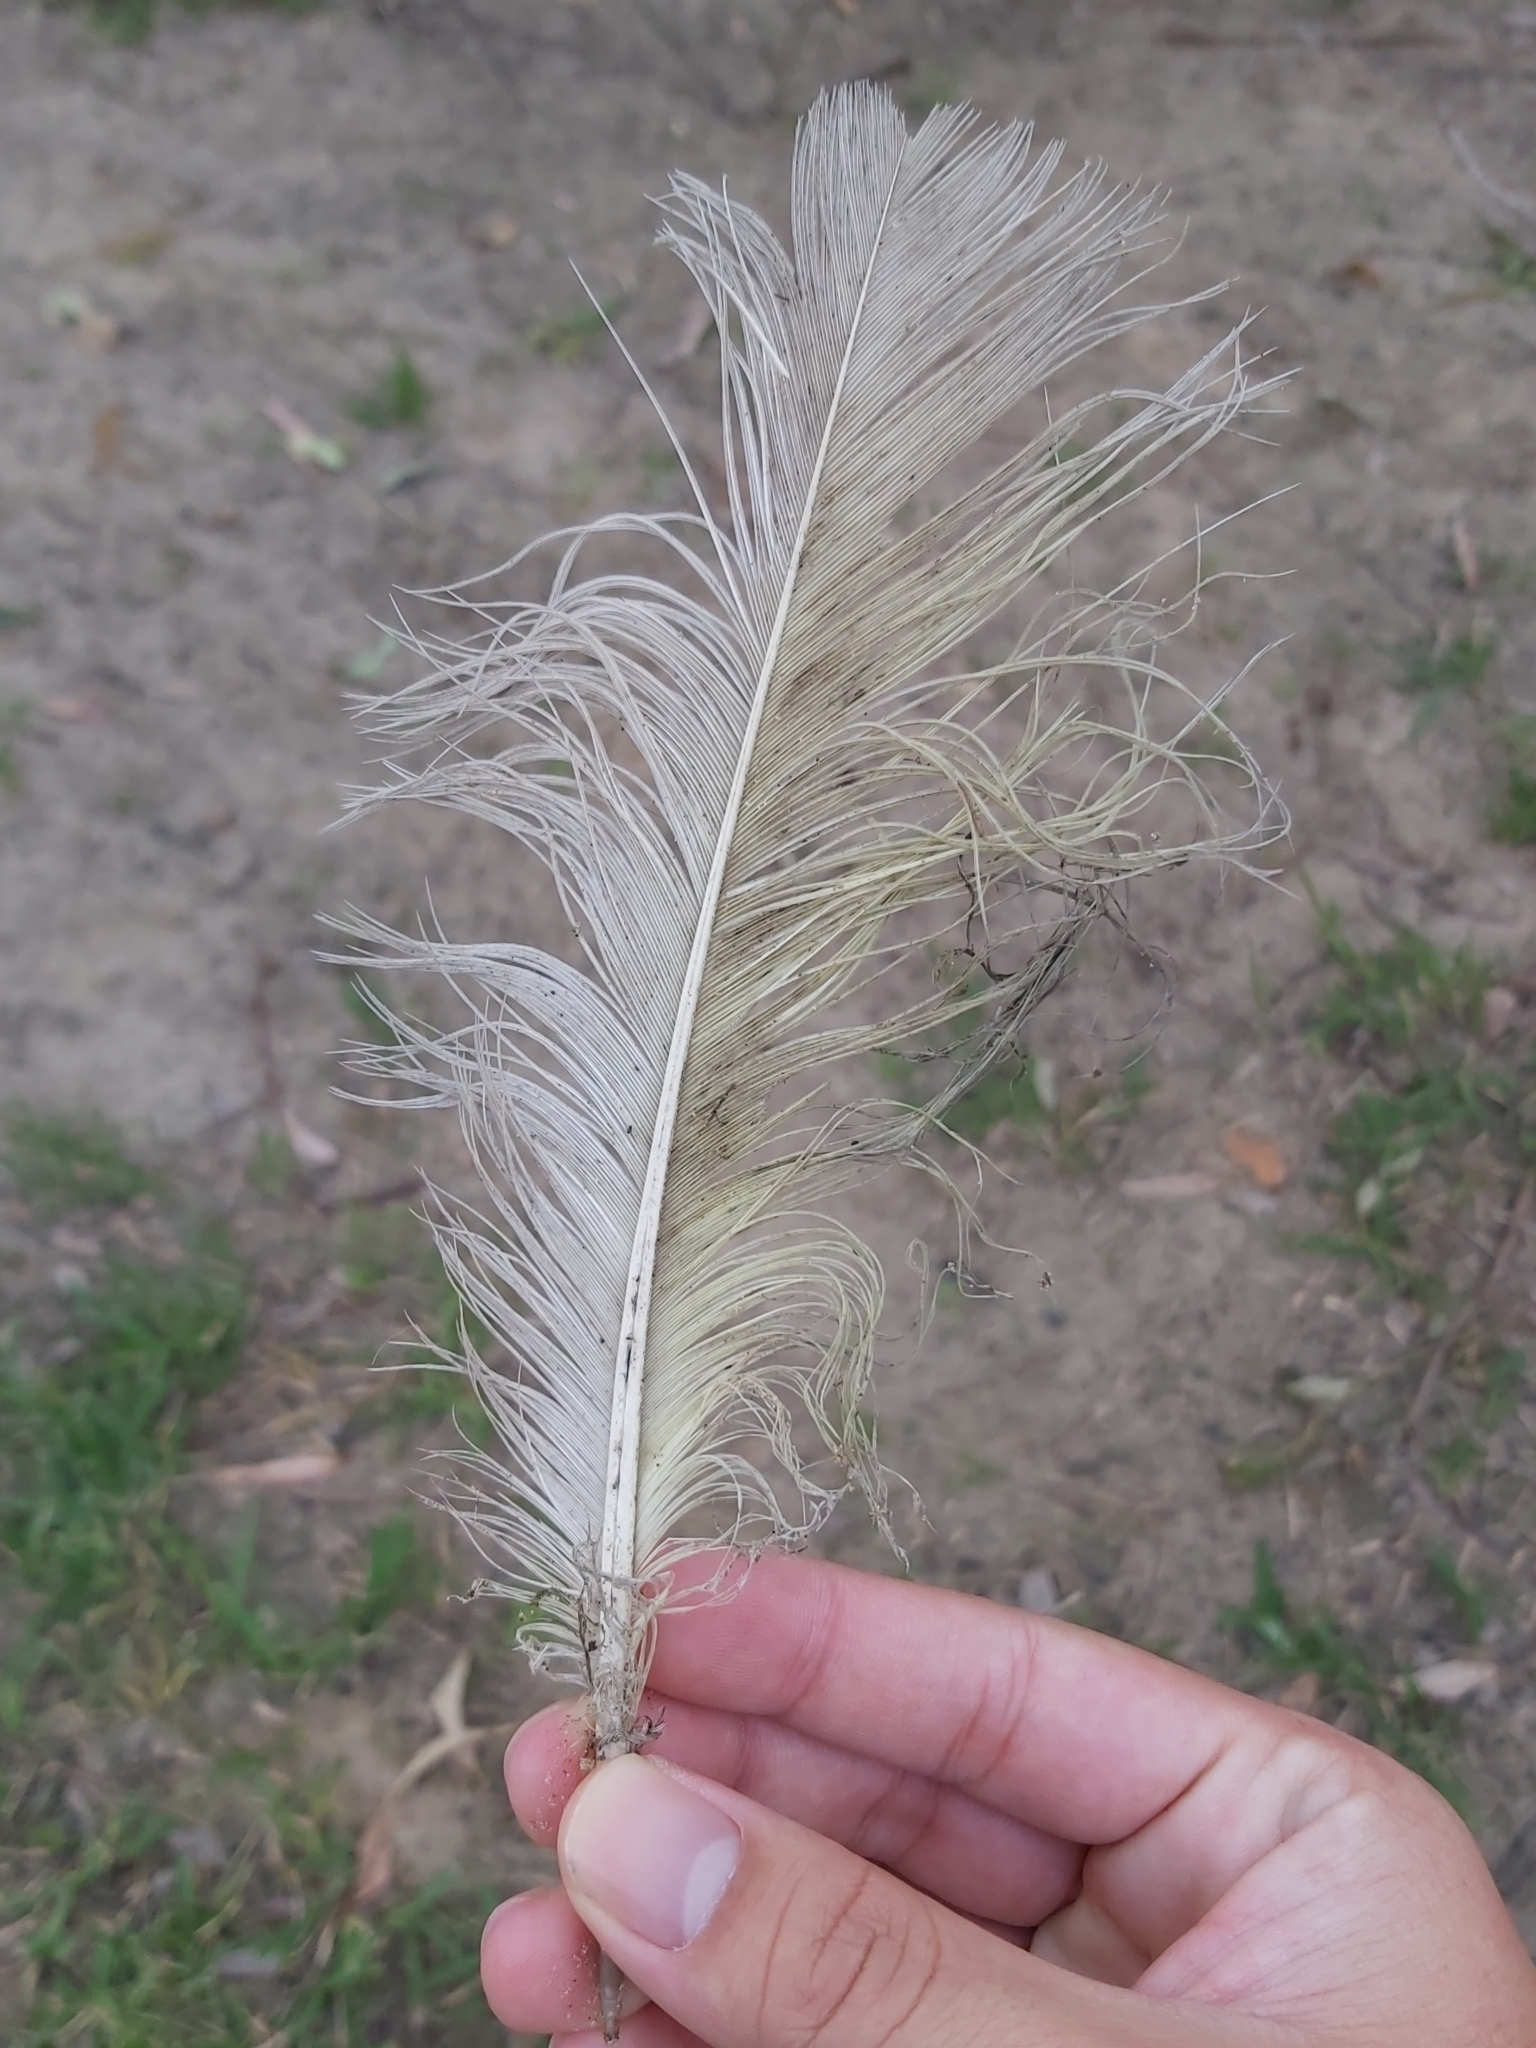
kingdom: Animalia
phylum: Chordata
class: Aves
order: Psittaciformes
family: Psittacidae
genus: Cacatua
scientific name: Cacatua galerita
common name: Sulphur-crested cockatoo
